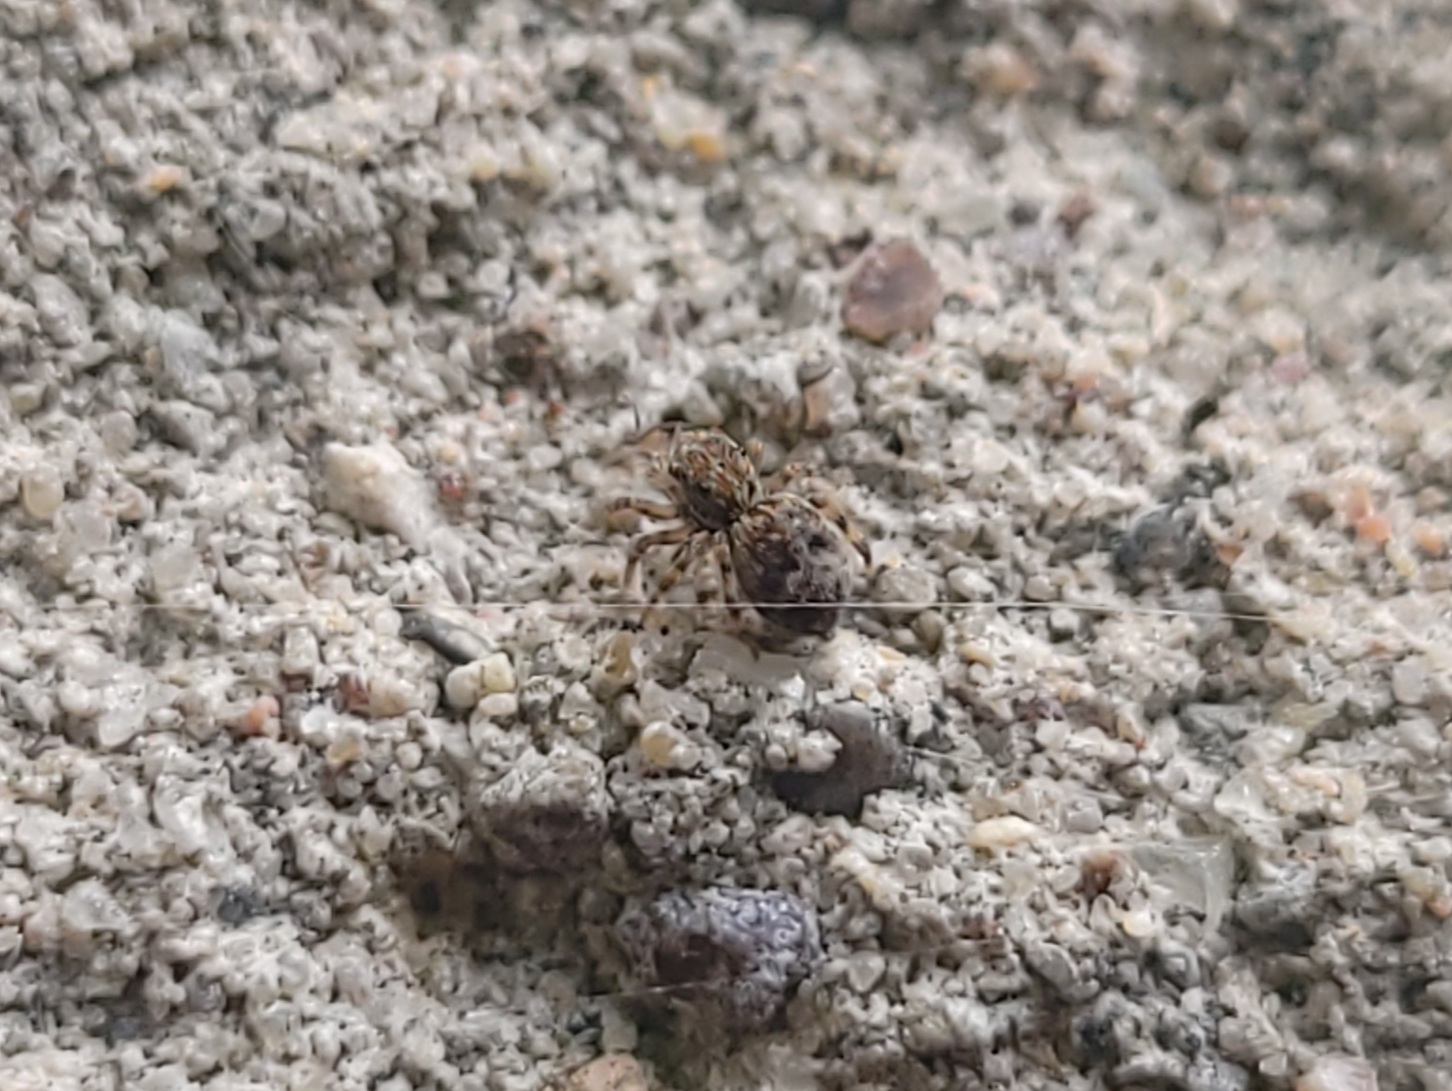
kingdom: Animalia
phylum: Arthropoda
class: Arachnida
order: Araneae
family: Salticidae
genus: Attulus
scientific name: Attulus fasciger
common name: Asiatic wall jumping spider
